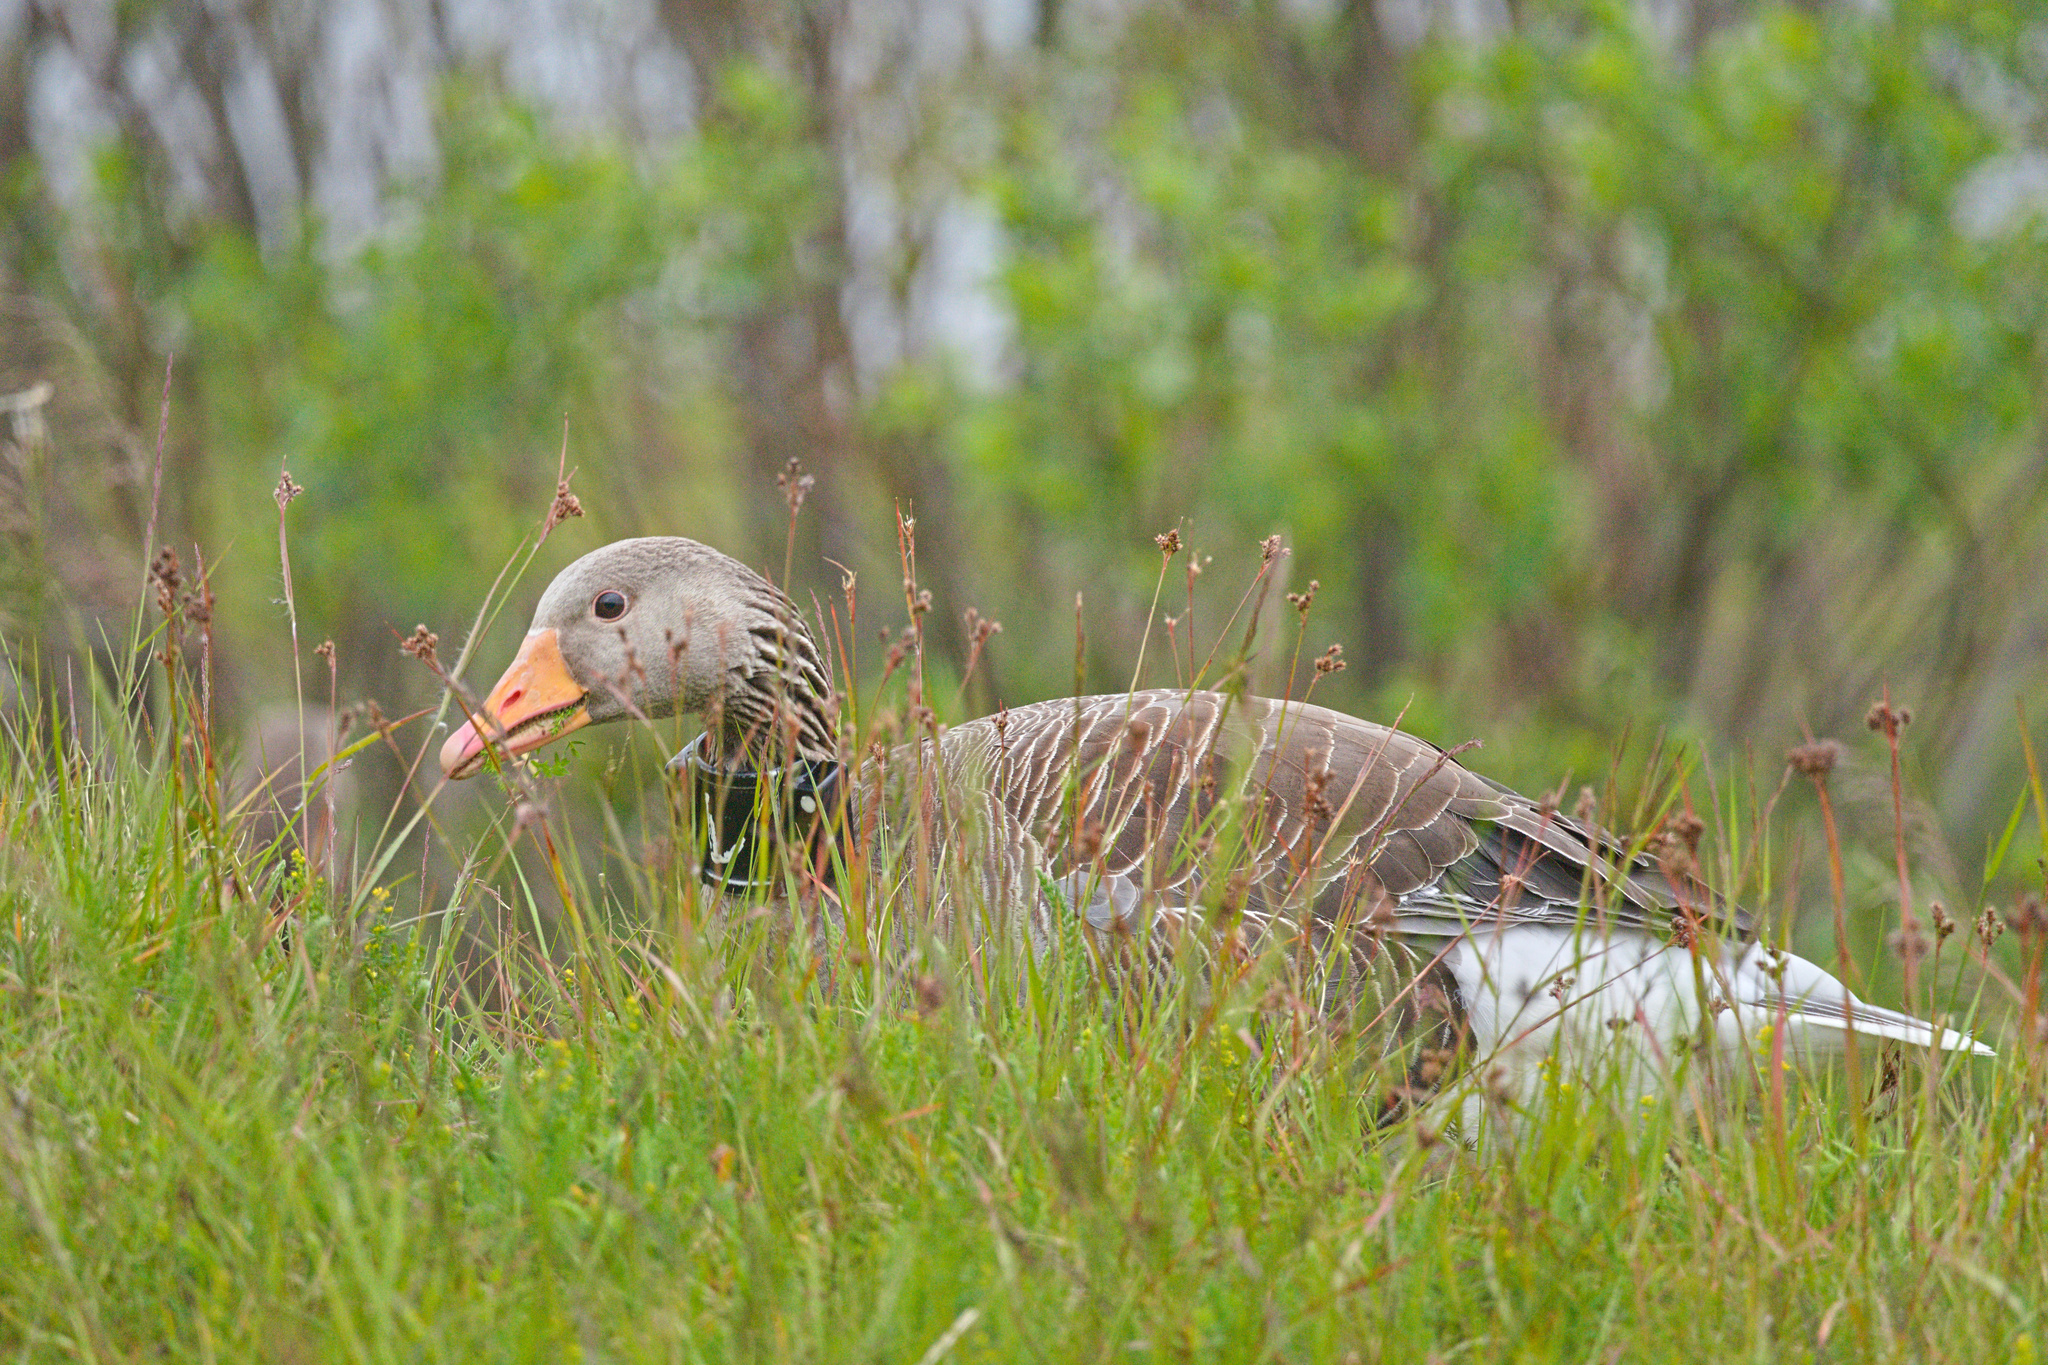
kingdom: Animalia
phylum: Chordata
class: Aves
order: Anseriformes
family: Anatidae
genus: Anser
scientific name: Anser anser
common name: Greylag goose
